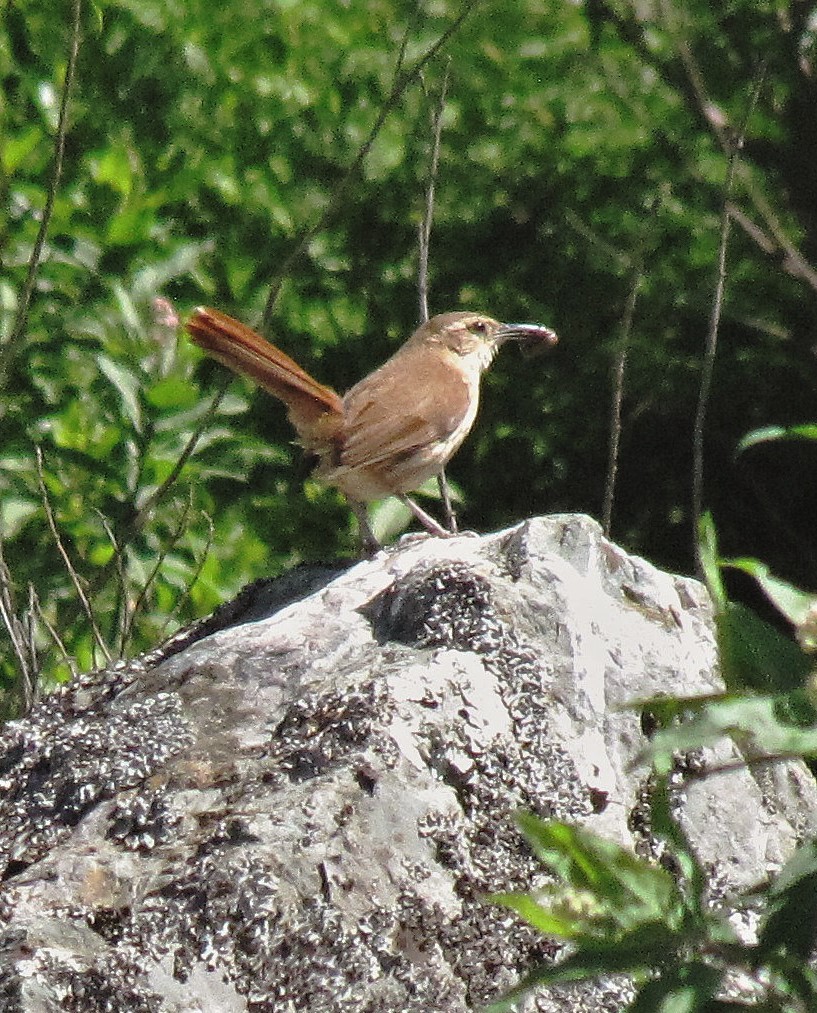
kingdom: Animalia
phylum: Chordata
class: Aves
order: Passeriformes
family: Furnariidae
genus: Upucerthia
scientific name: Upucerthia ruficaudus
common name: Straight-billed earthcreeper
